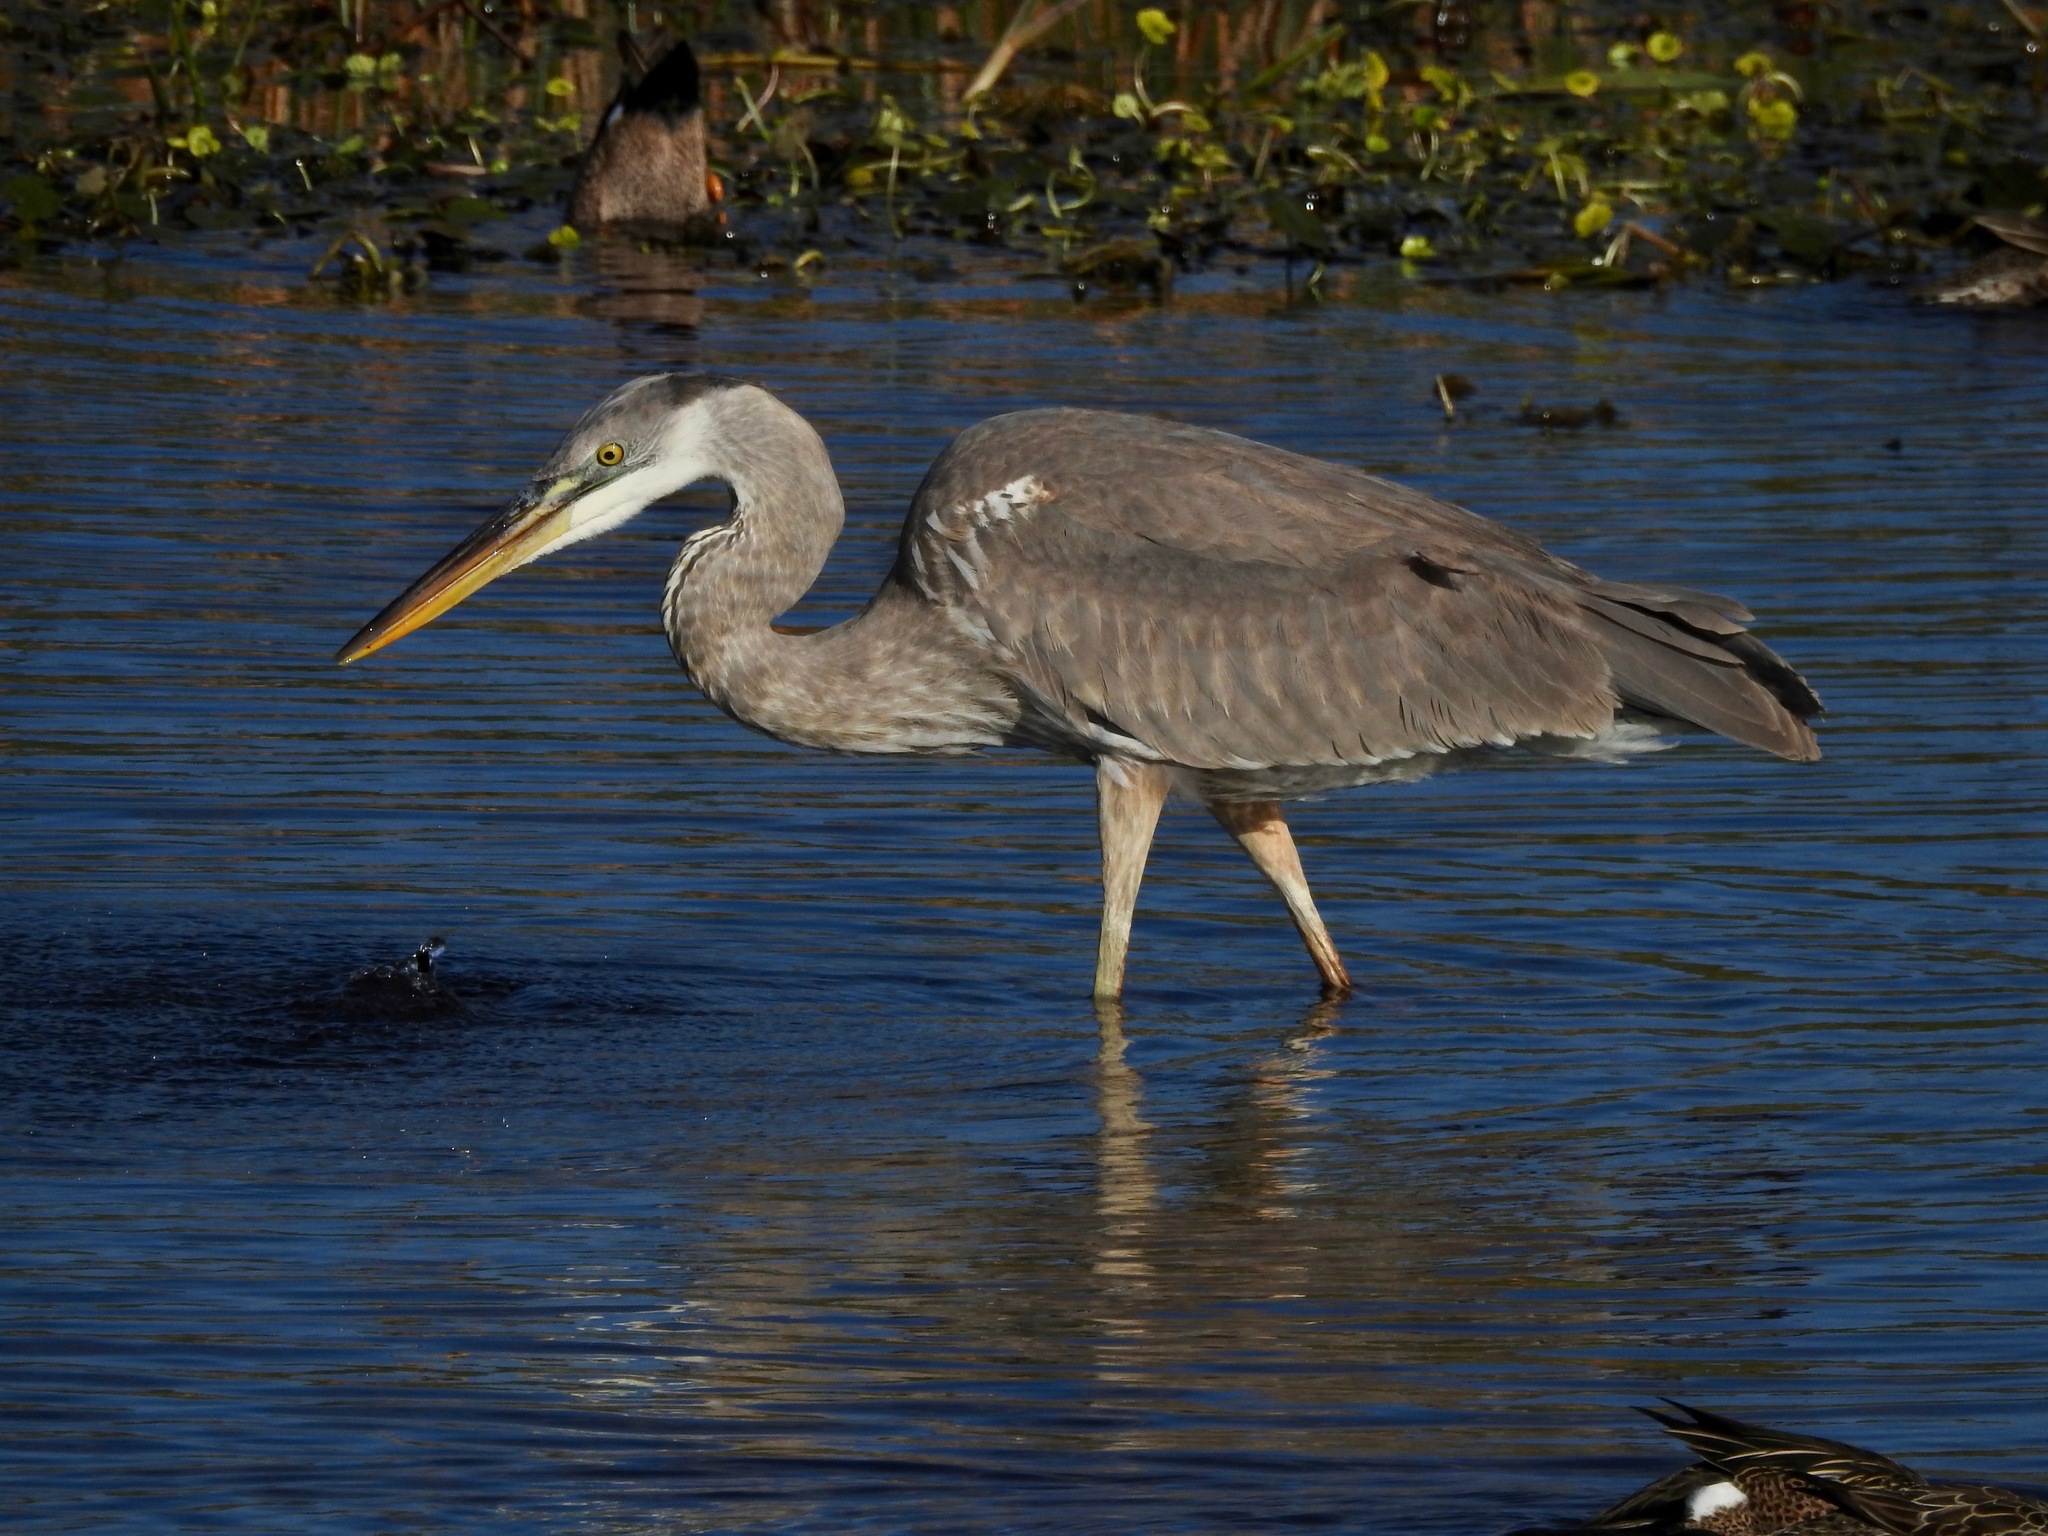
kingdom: Animalia
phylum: Chordata
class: Aves
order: Pelecaniformes
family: Ardeidae
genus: Ardea
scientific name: Ardea herodias
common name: Great blue heron
